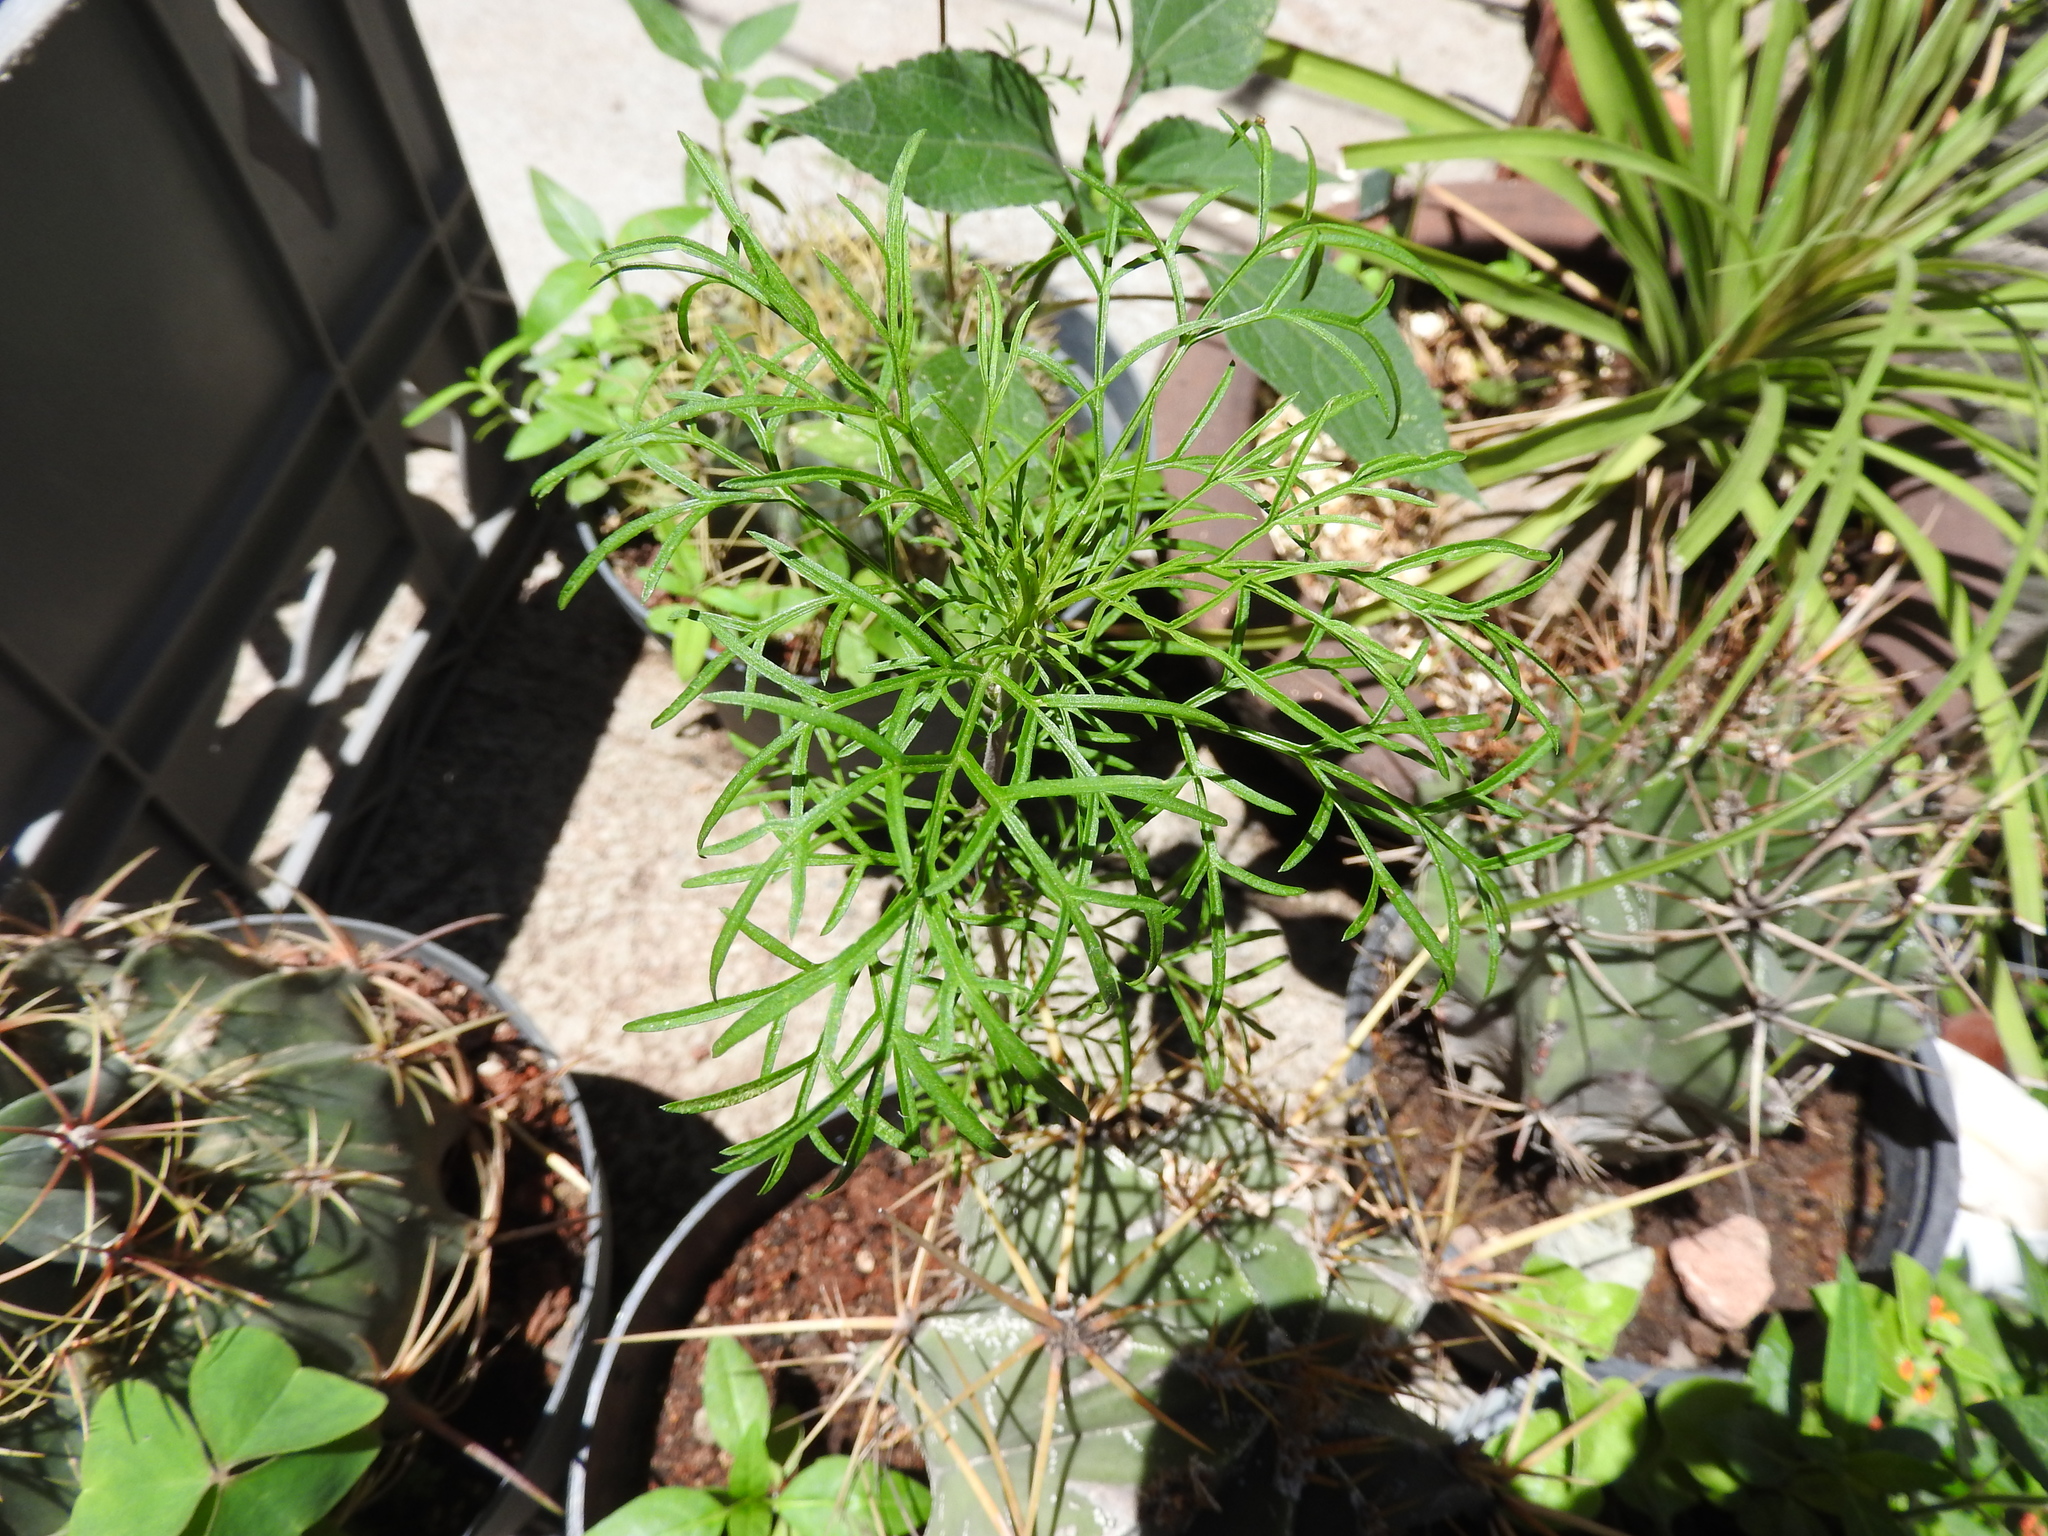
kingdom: Plantae
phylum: Tracheophyta
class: Magnoliopsida
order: Asterales
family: Asteraceae
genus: Cosmos
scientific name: Cosmos bipinnatus
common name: Garden cosmos
